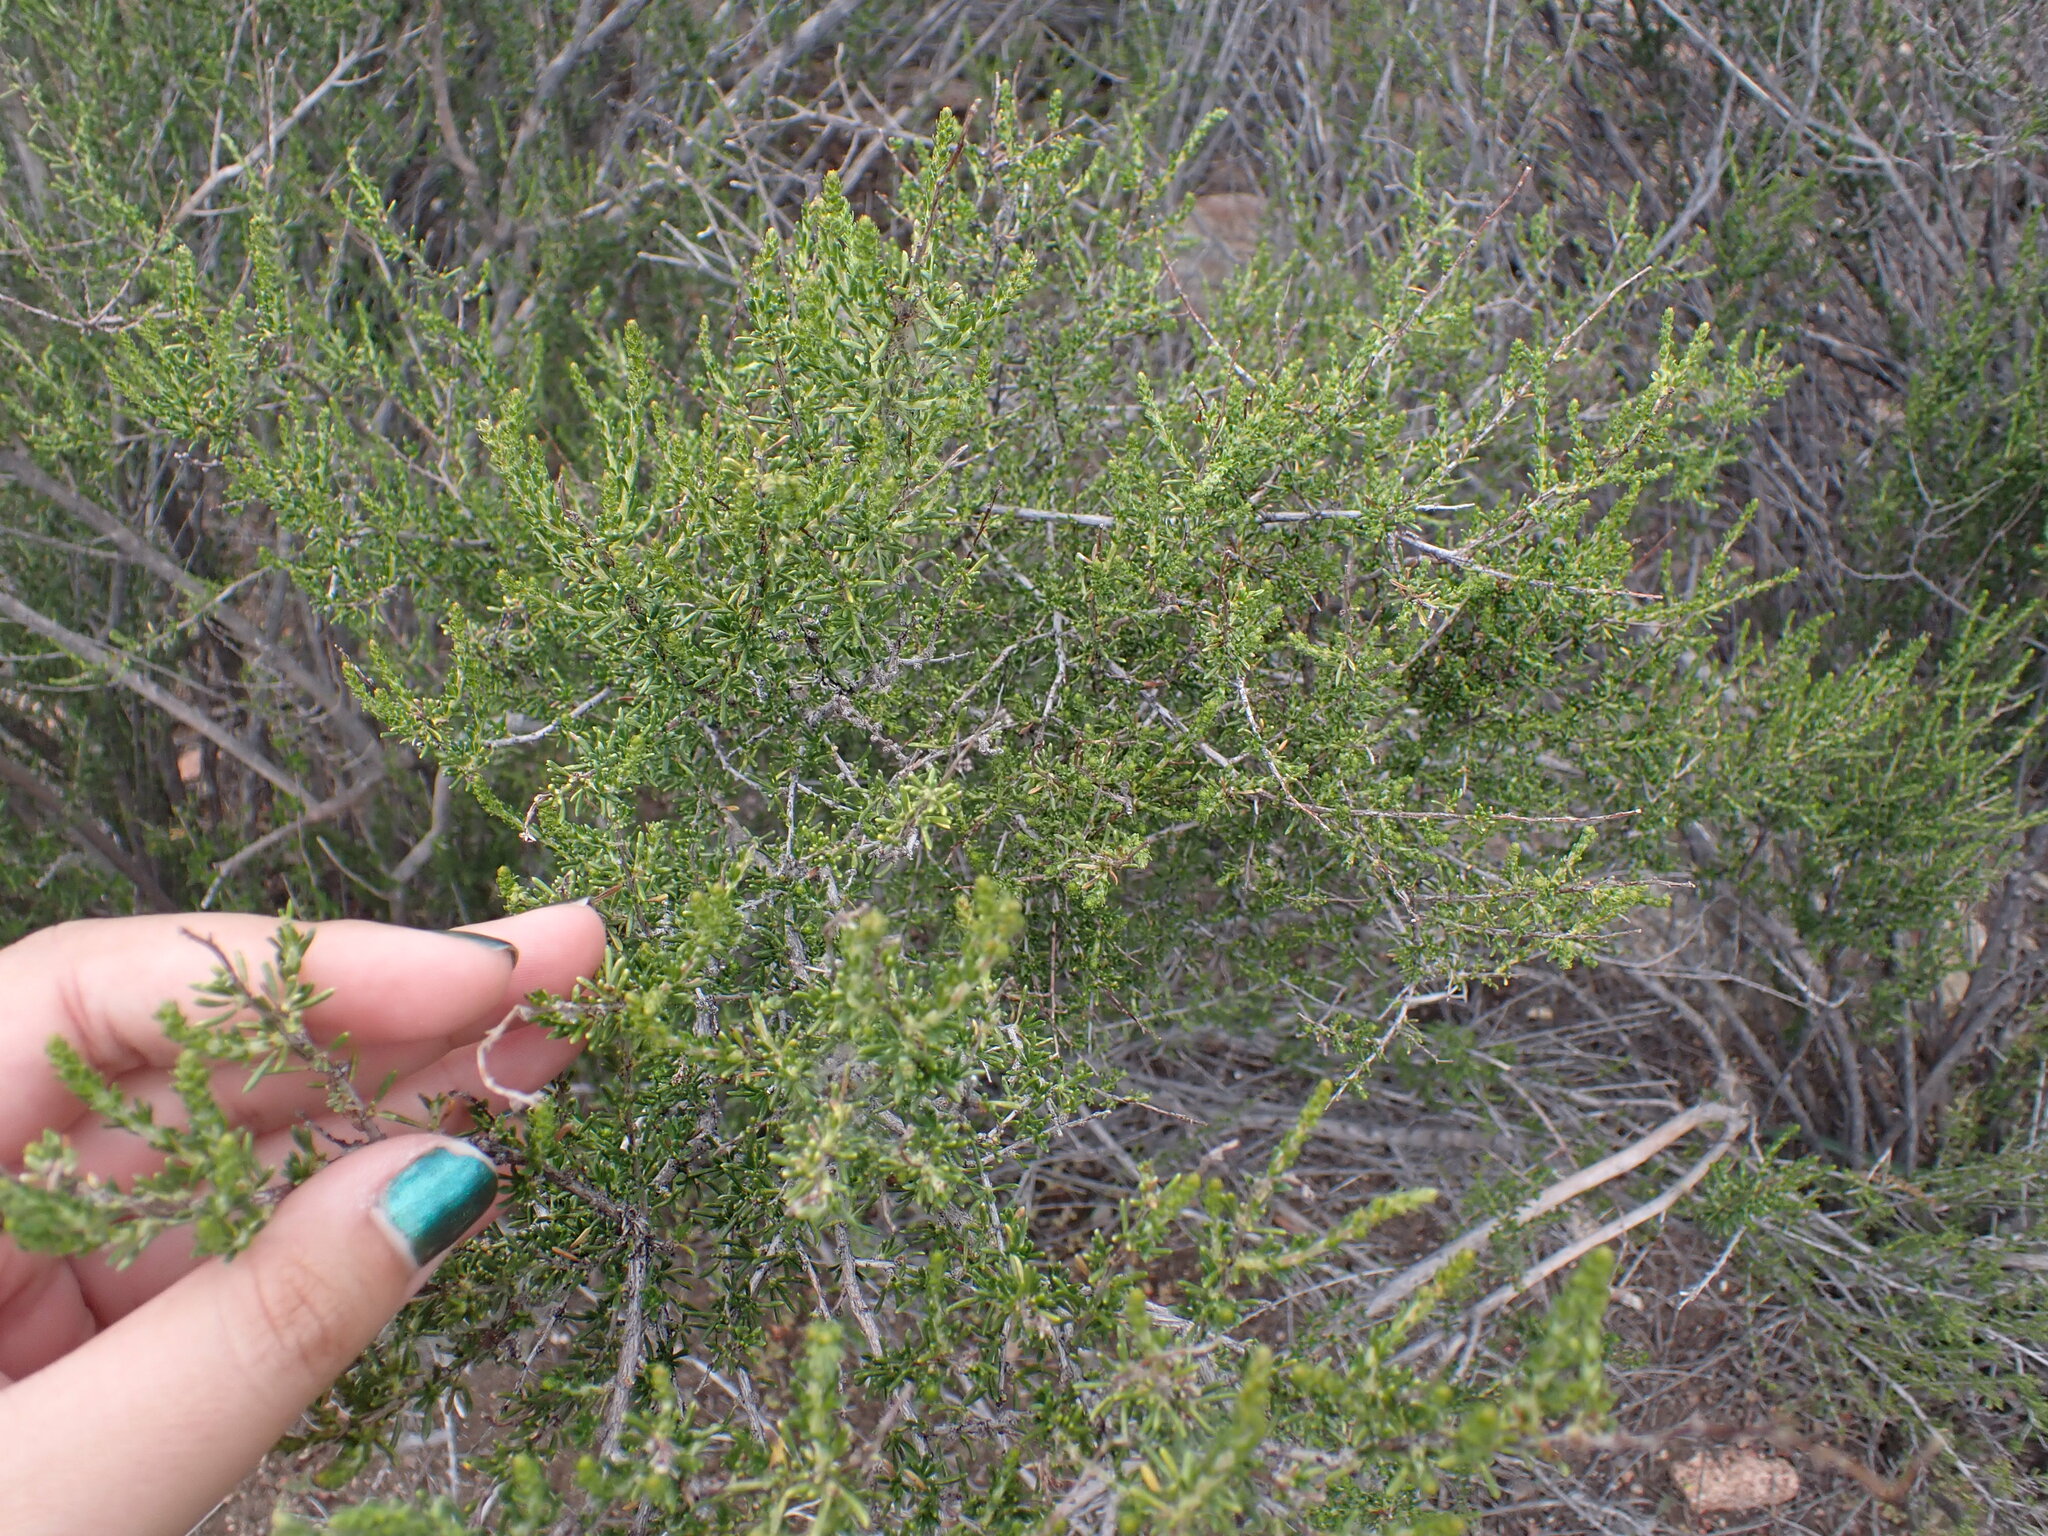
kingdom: Plantae
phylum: Tracheophyta
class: Magnoliopsida
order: Rosales
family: Rosaceae
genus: Adenostoma
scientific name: Adenostoma fasciculatum
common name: Chamise
